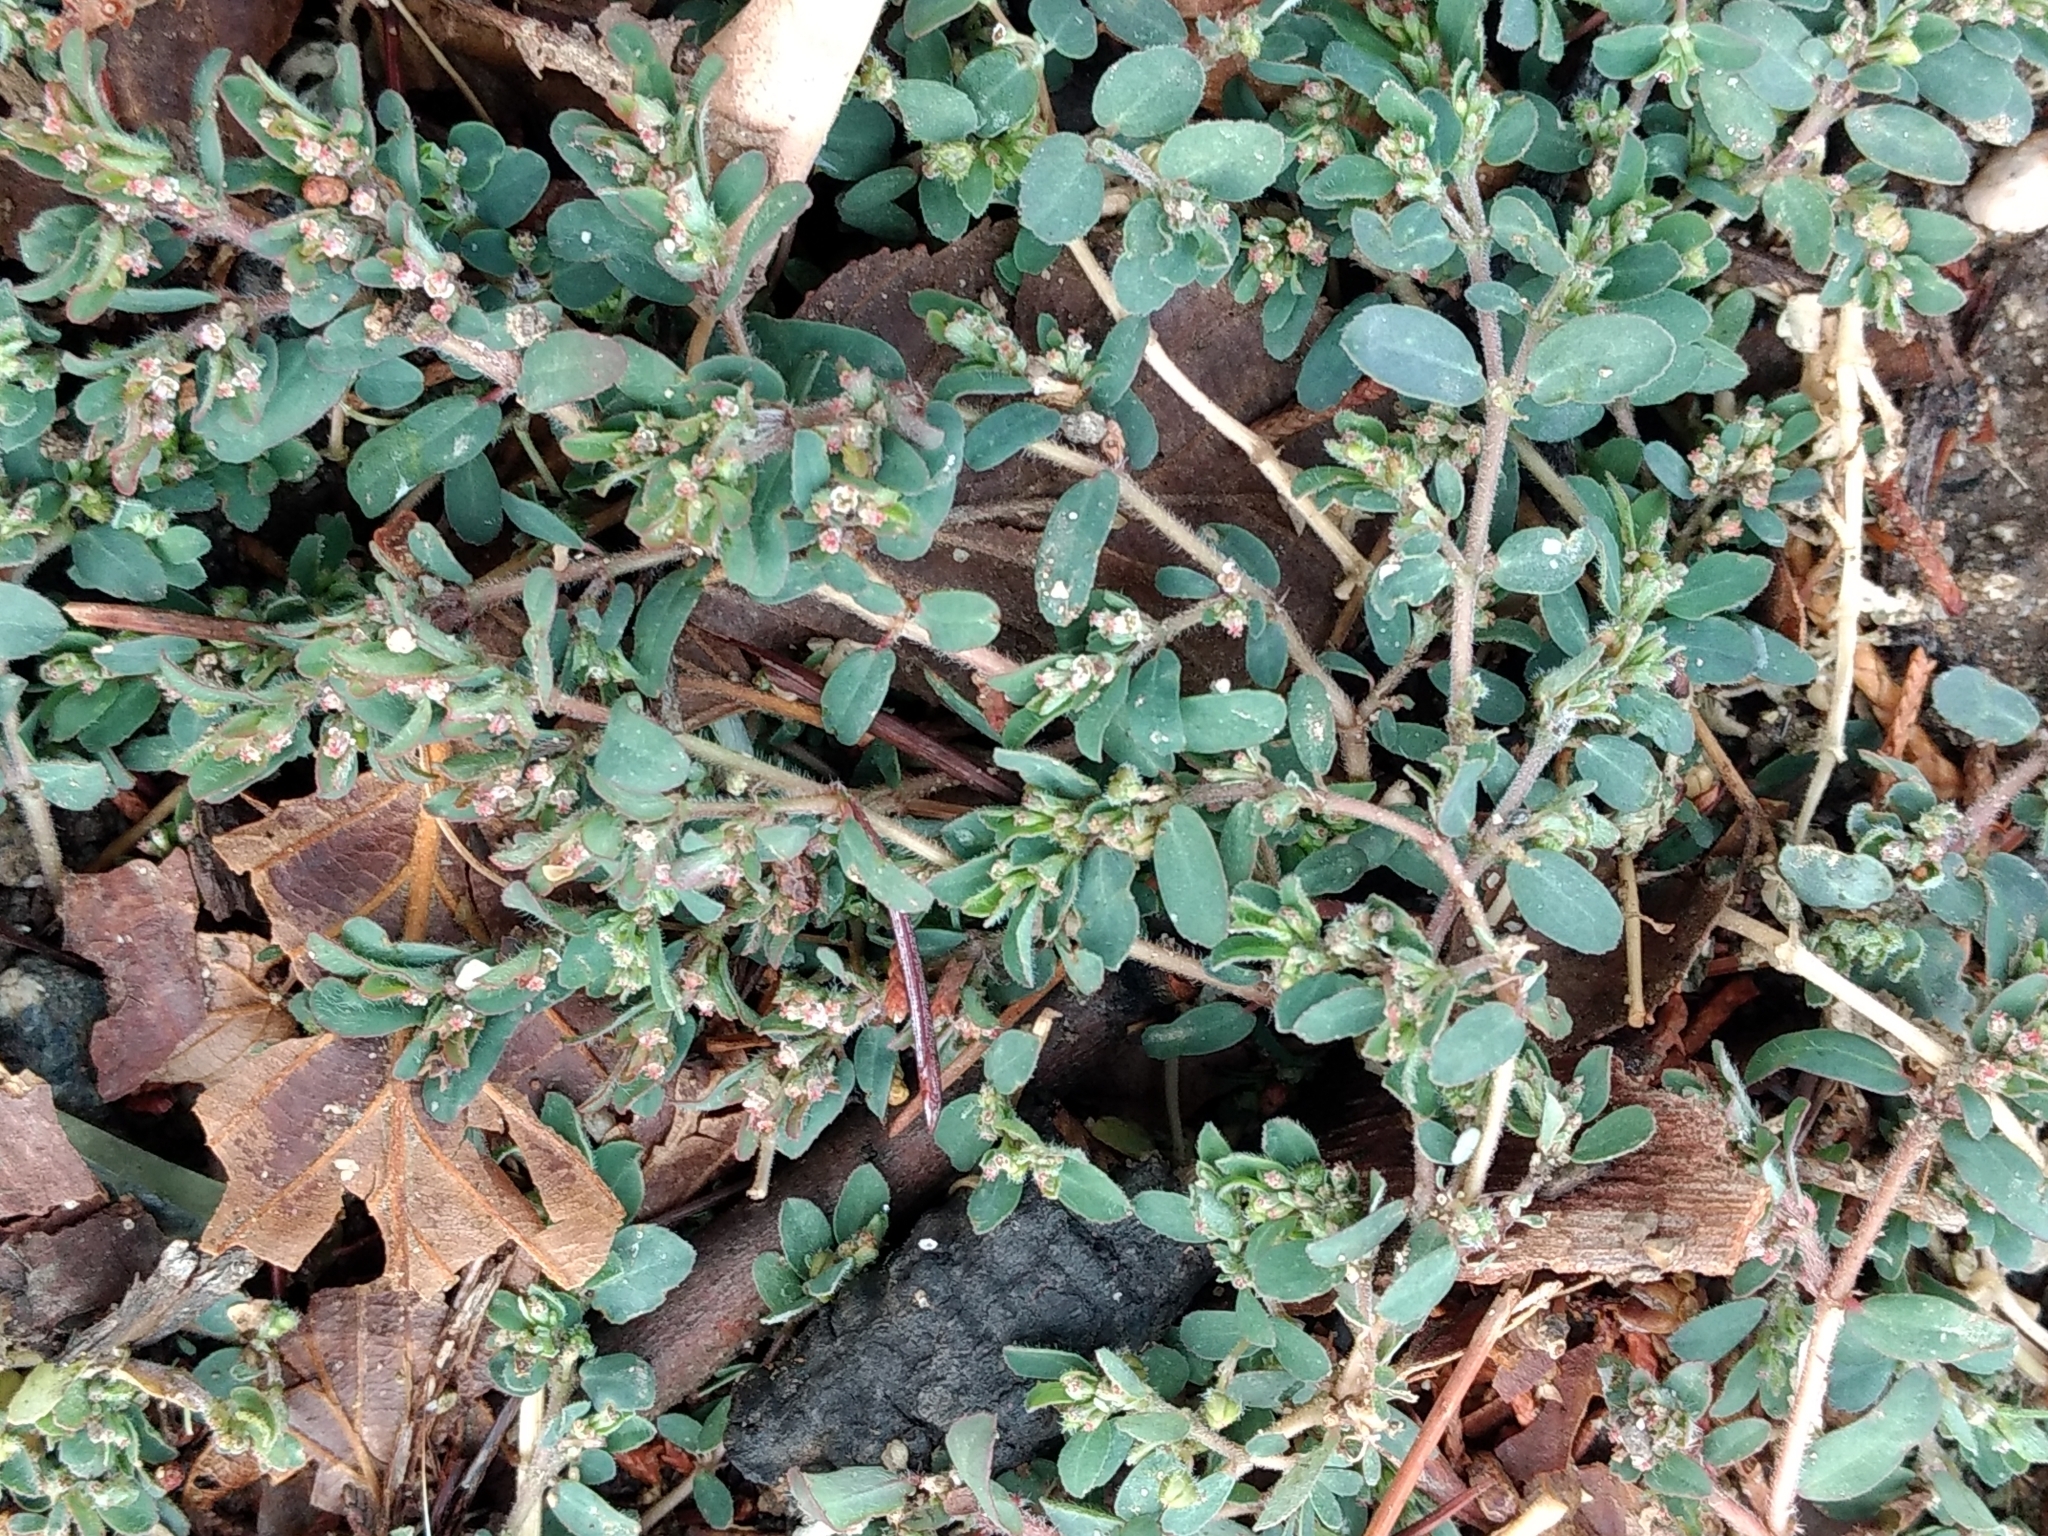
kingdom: Plantae
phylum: Tracheophyta
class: Magnoliopsida
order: Malpighiales
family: Euphorbiaceae
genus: Euphorbia
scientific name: Euphorbia maculata
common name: Spotted spurge
